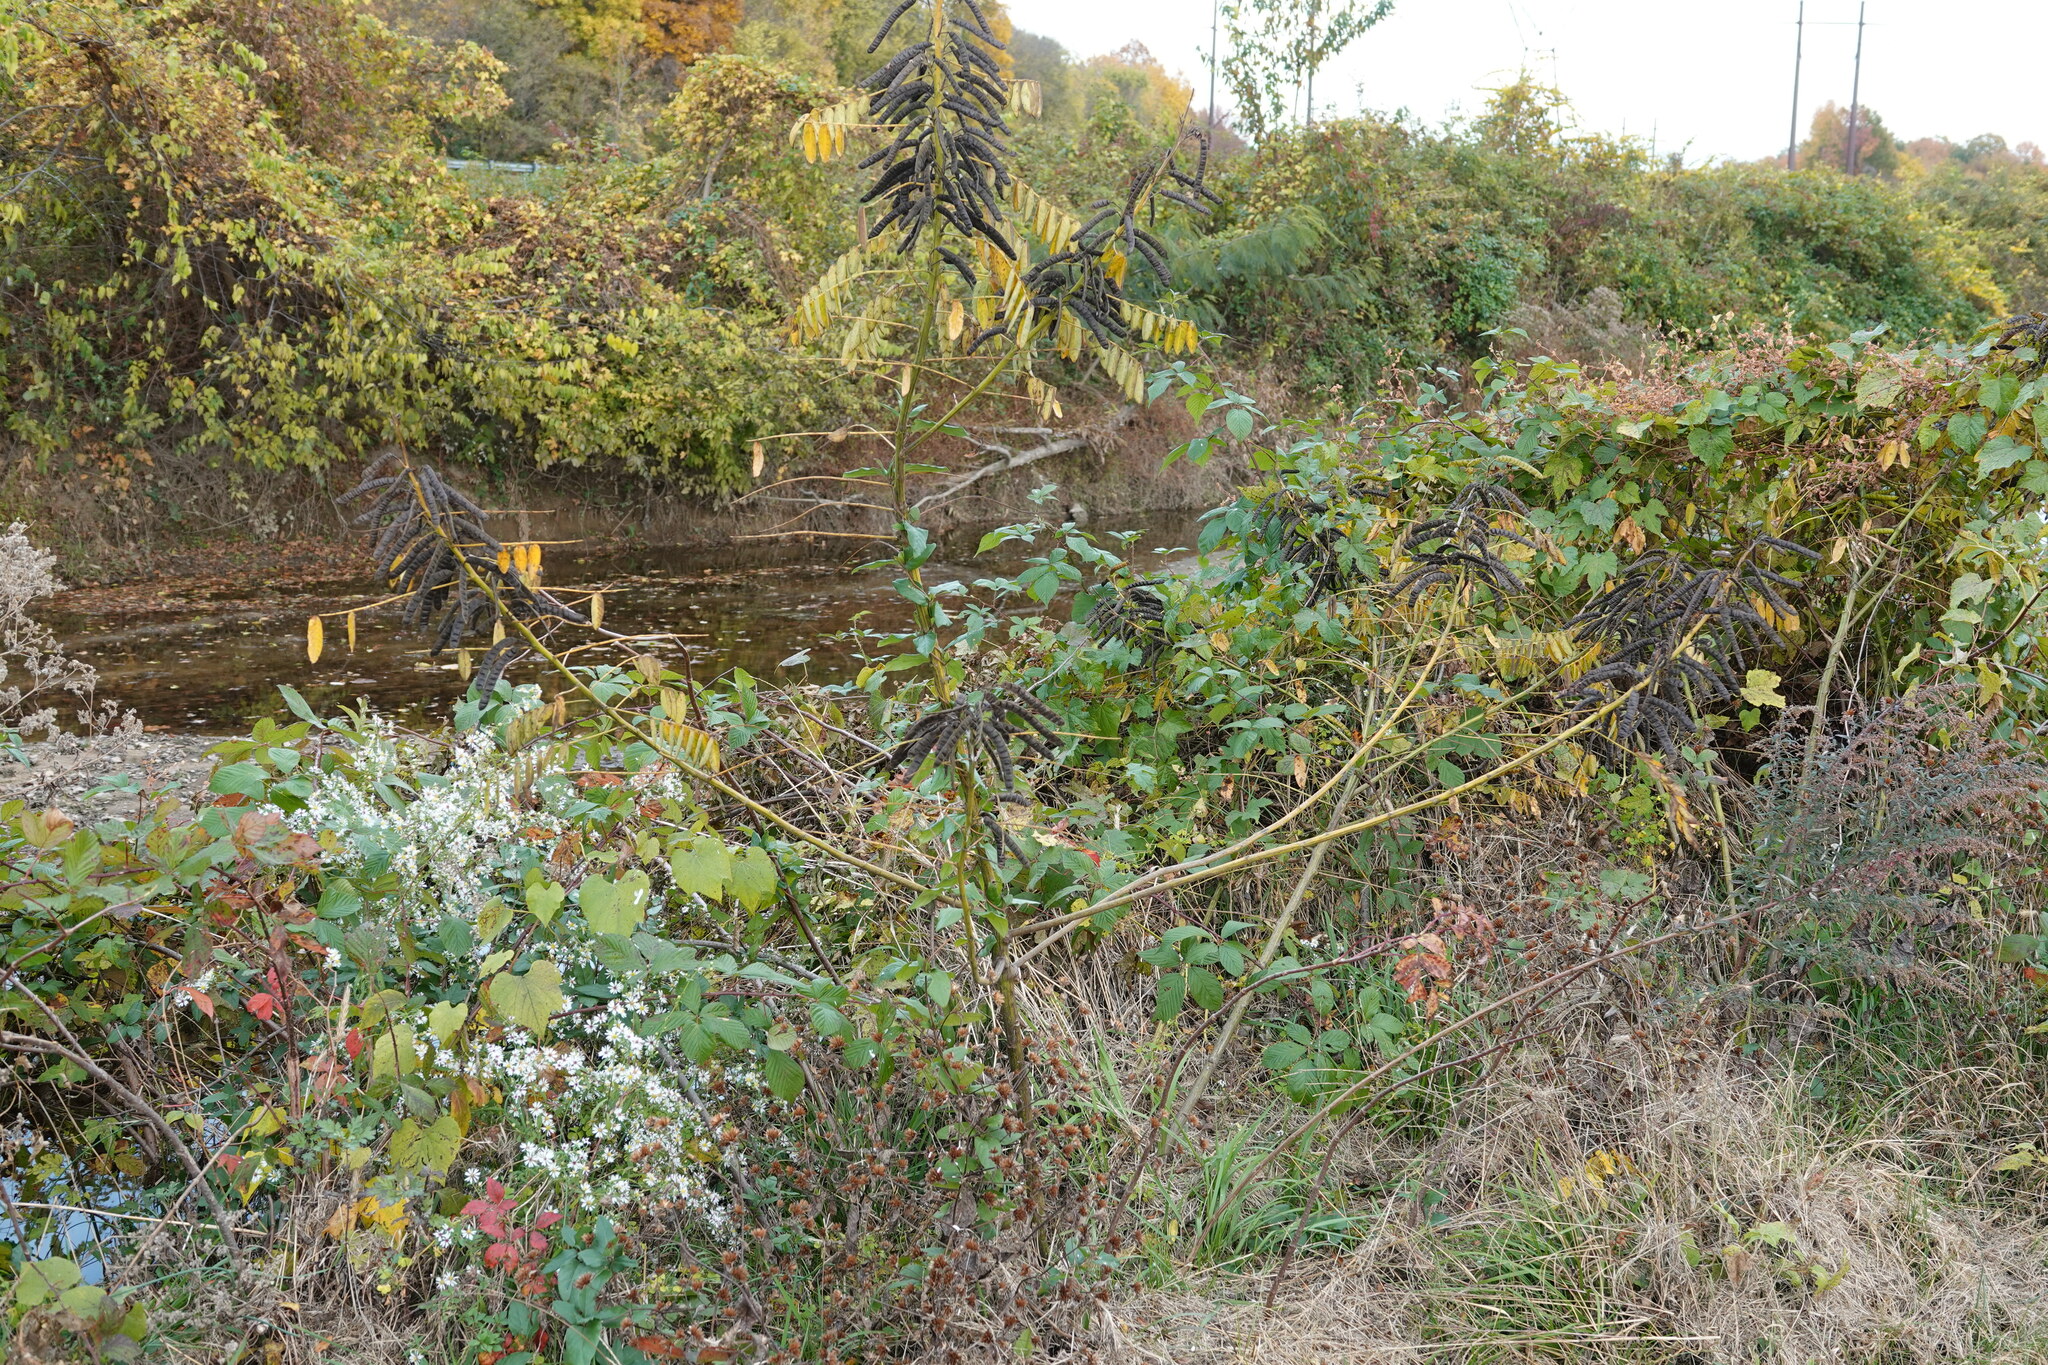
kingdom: Plantae
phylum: Tracheophyta
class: Magnoliopsida
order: Fabales
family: Fabaceae
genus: Senna
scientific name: Senna marilandica
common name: American senna
